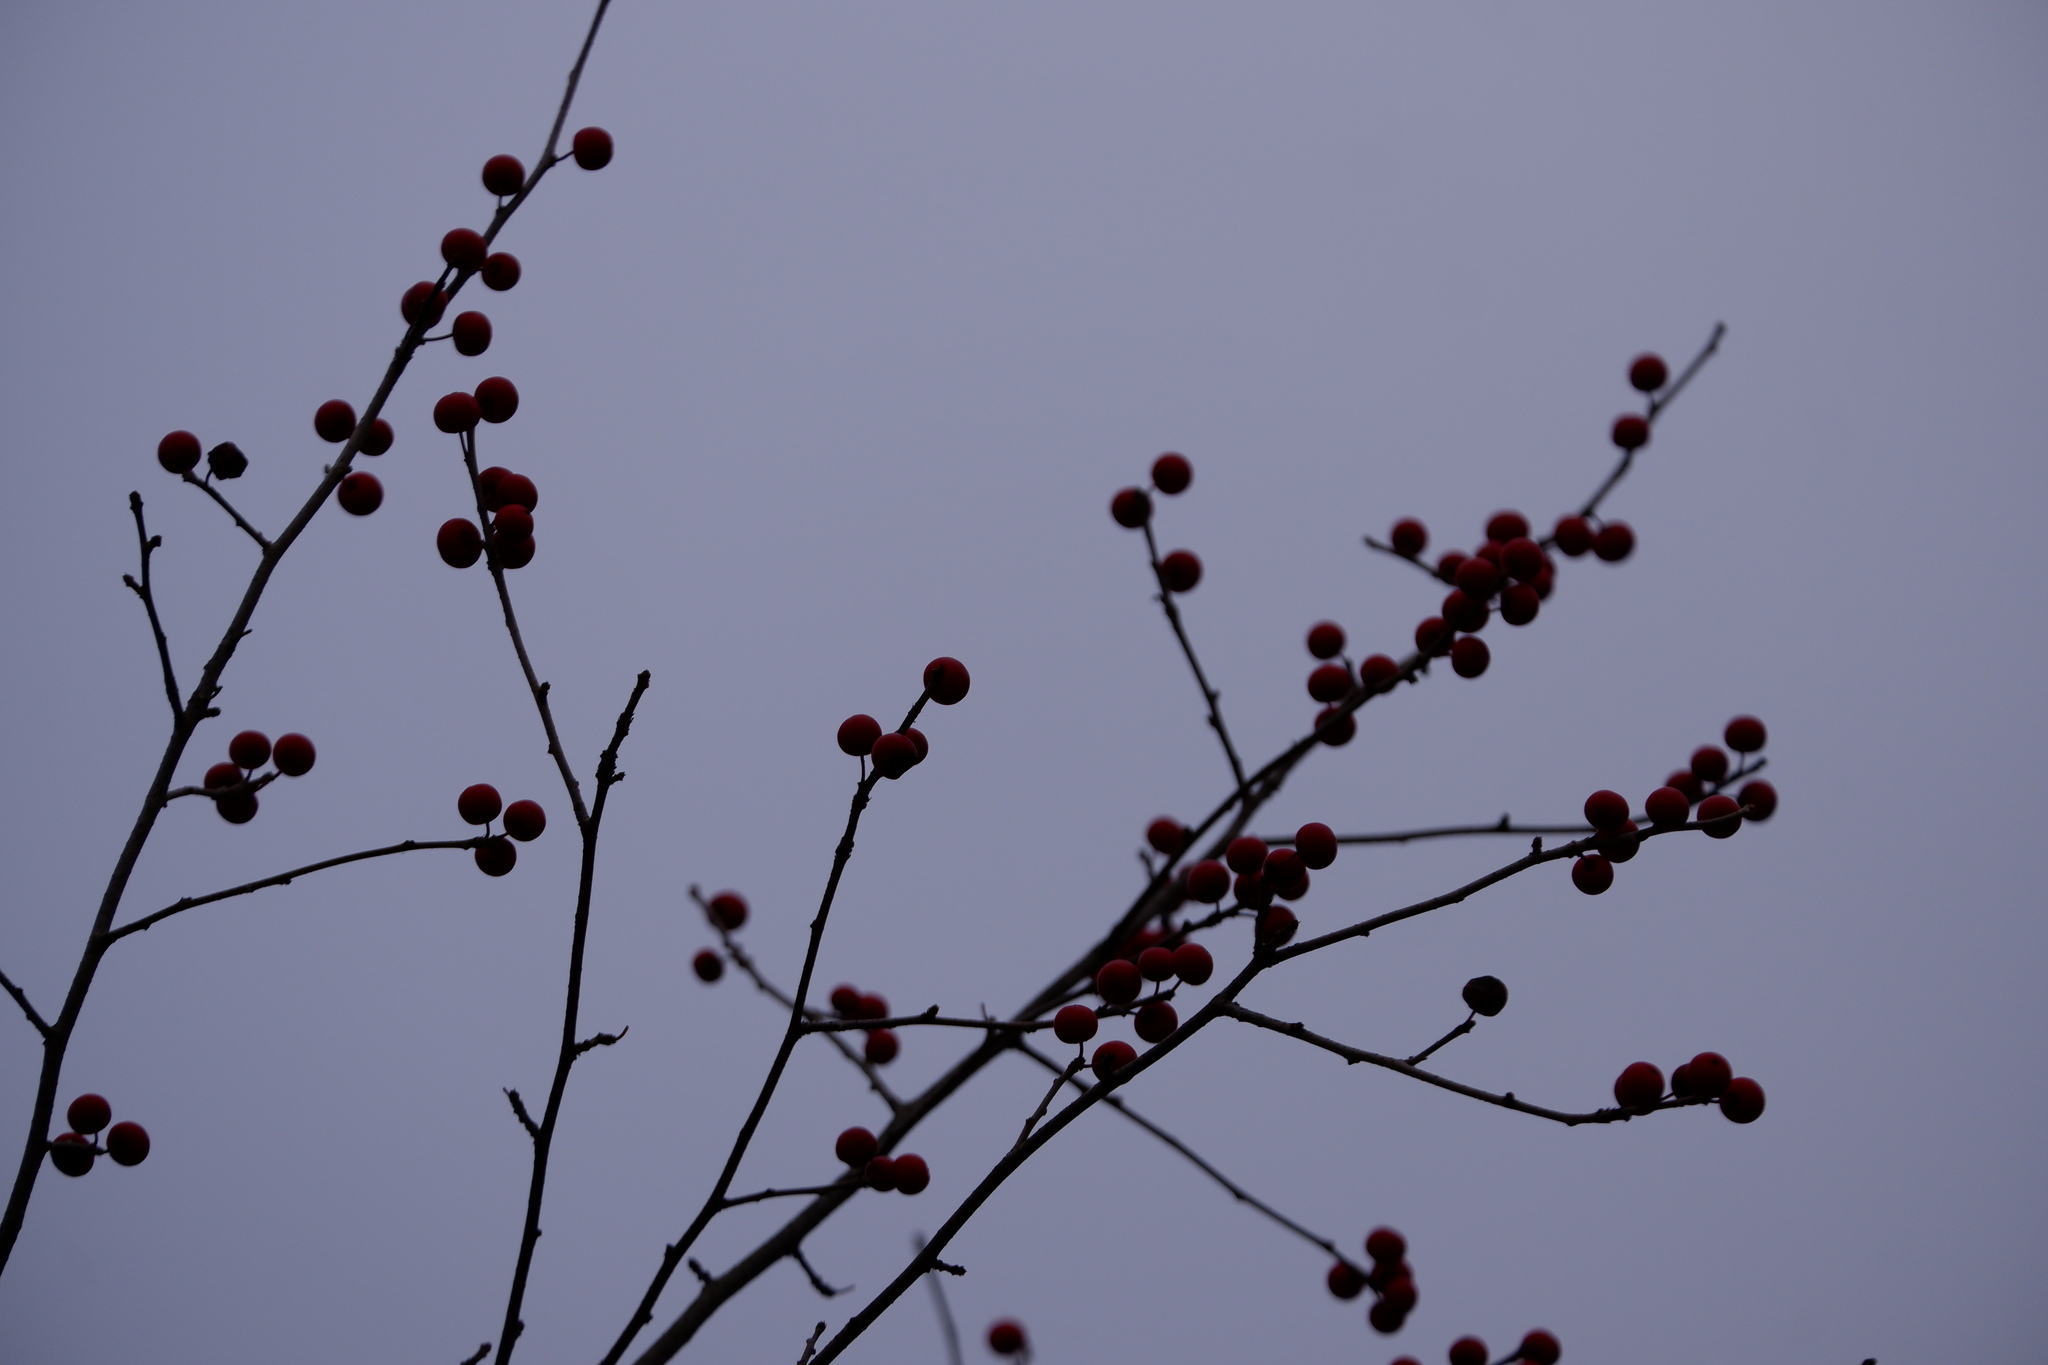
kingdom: Plantae
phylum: Tracheophyta
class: Magnoliopsida
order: Aquifoliales
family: Aquifoliaceae
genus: Ilex
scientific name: Ilex verticillata
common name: Virginia winterberry
